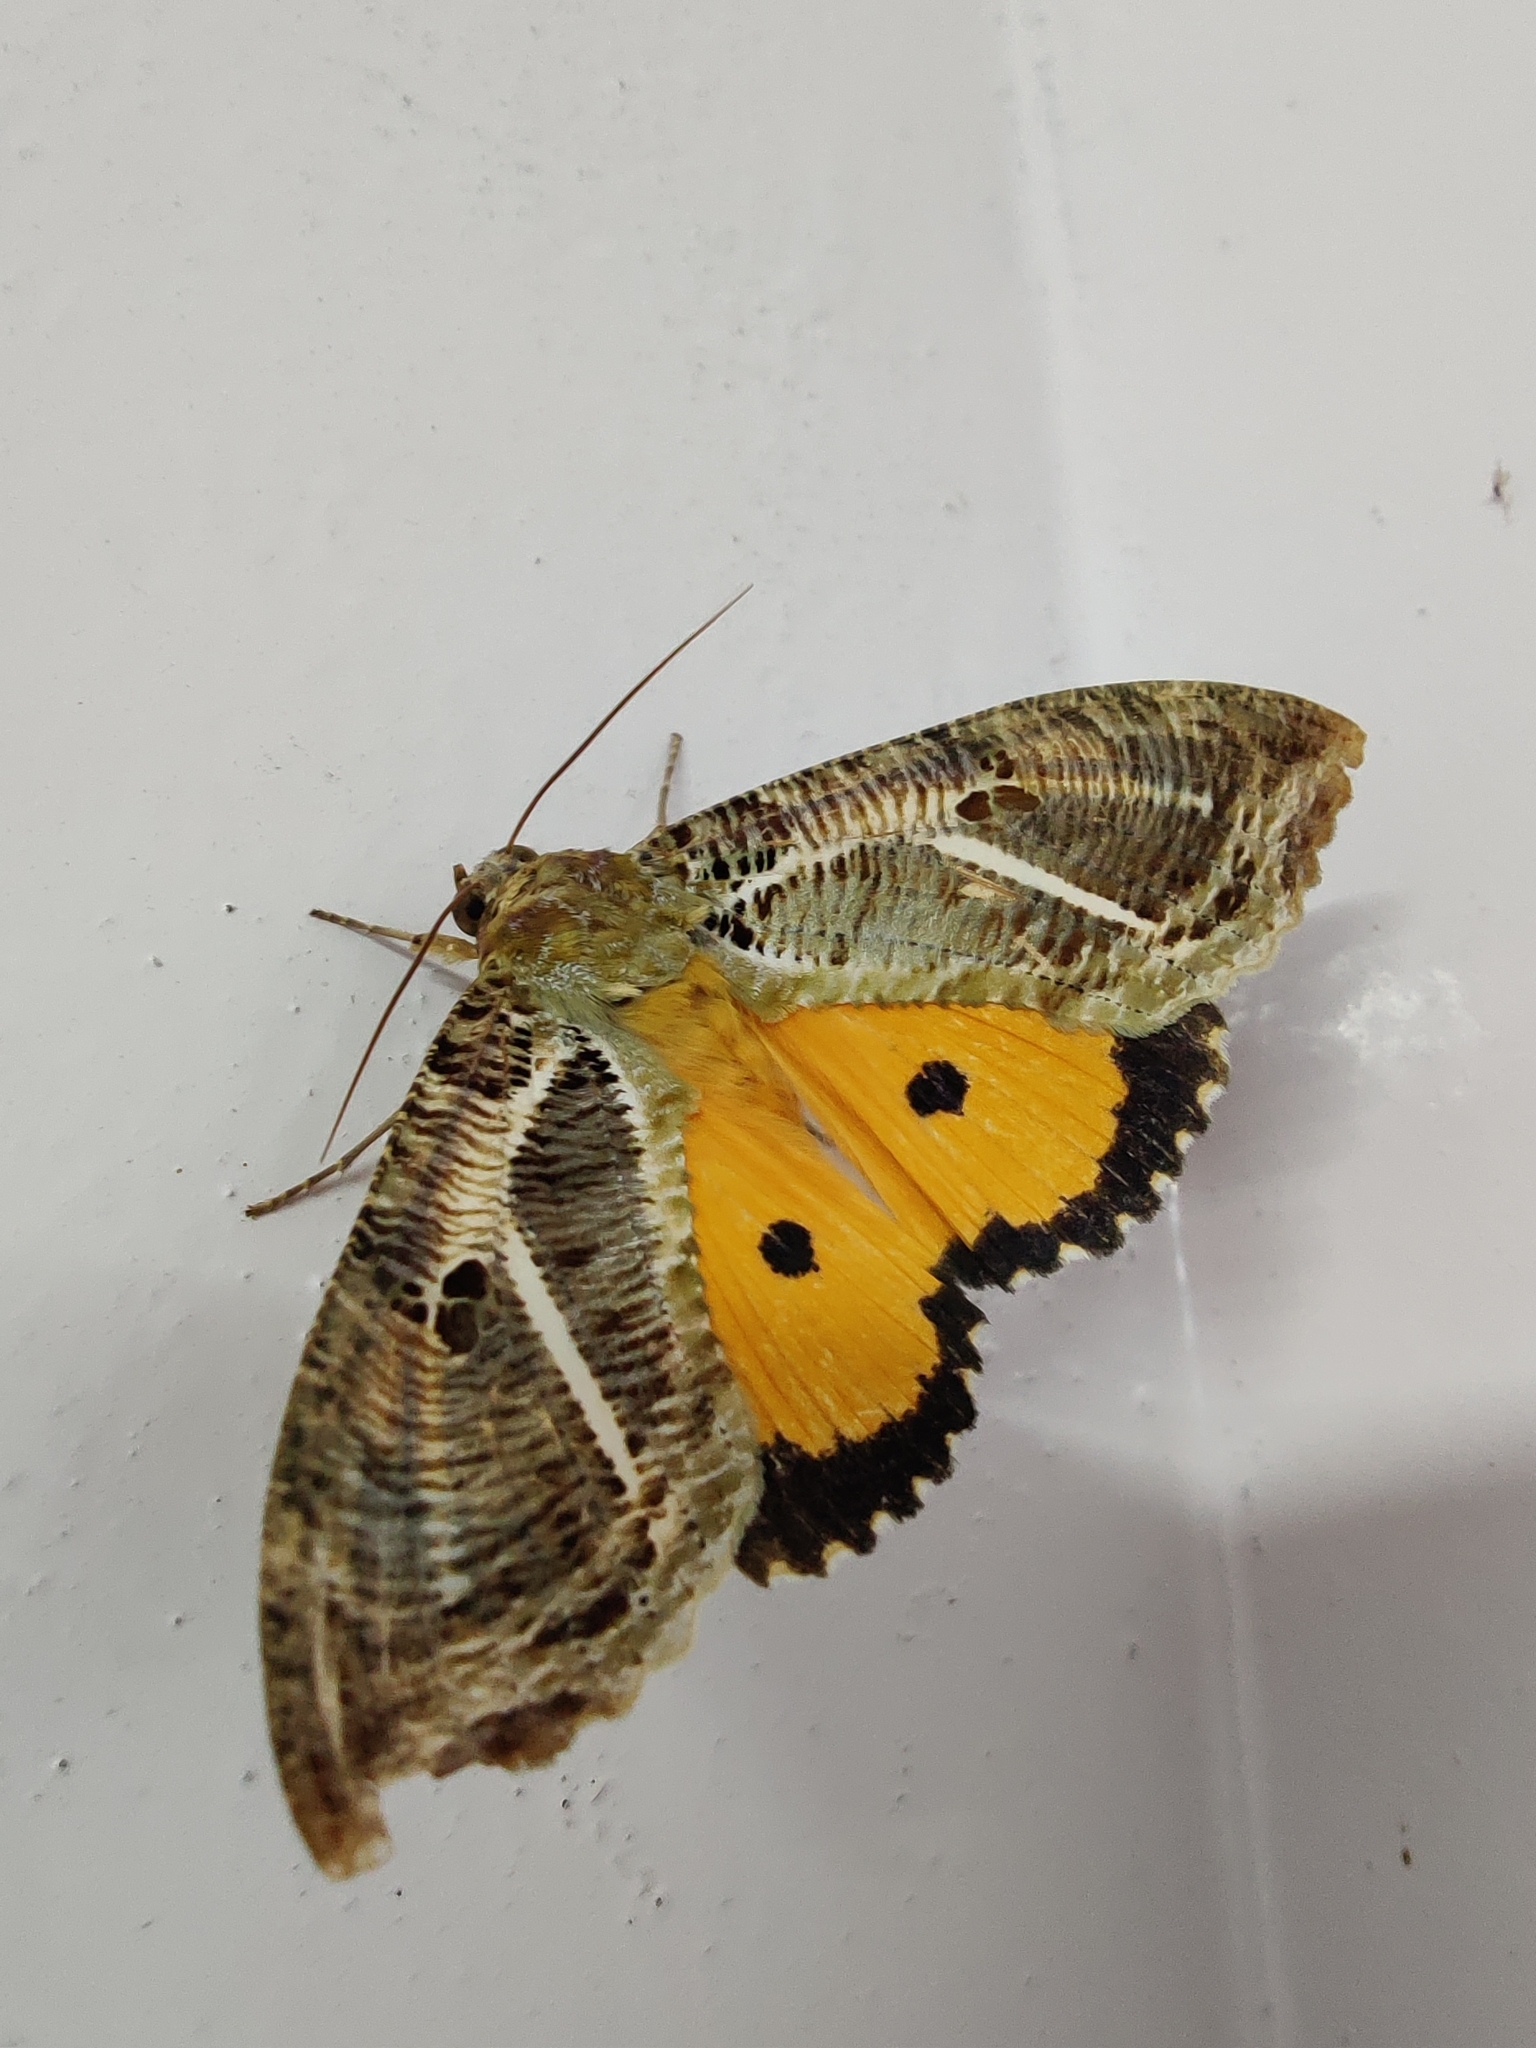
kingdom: Animalia
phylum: Arthropoda
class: Insecta
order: Lepidoptera
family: Erebidae
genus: Eudocima
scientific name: Eudocima materna
